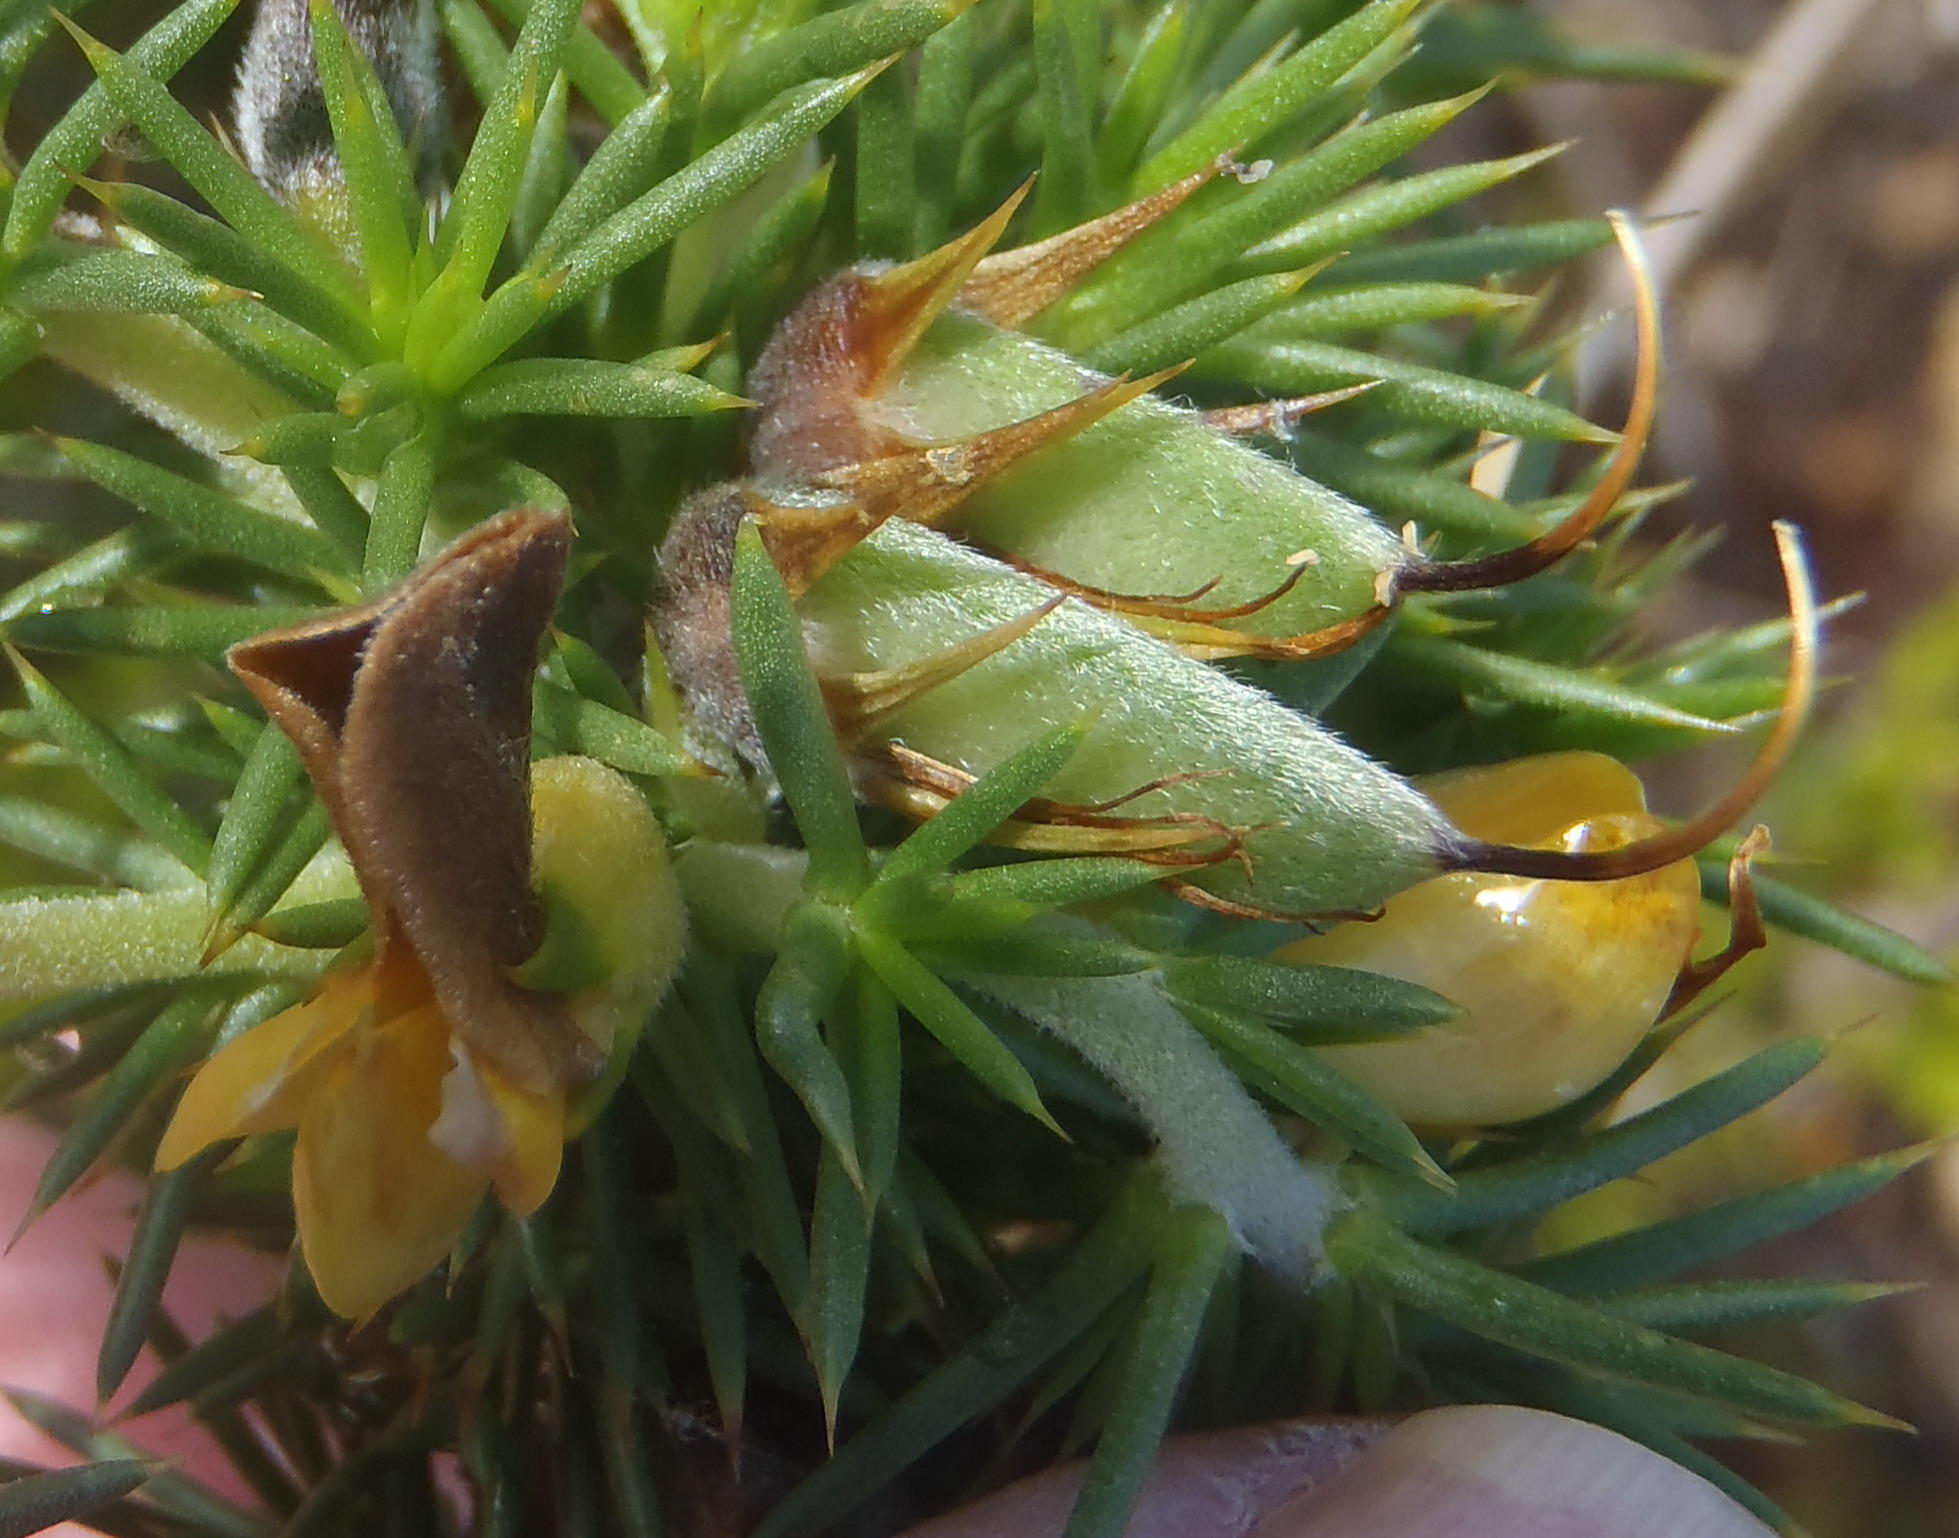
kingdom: Plantae
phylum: Tracheophyta
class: Magnoliopsida
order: Fabales
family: Fabaceae
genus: Aspalathus
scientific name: Aspalathus hirta
